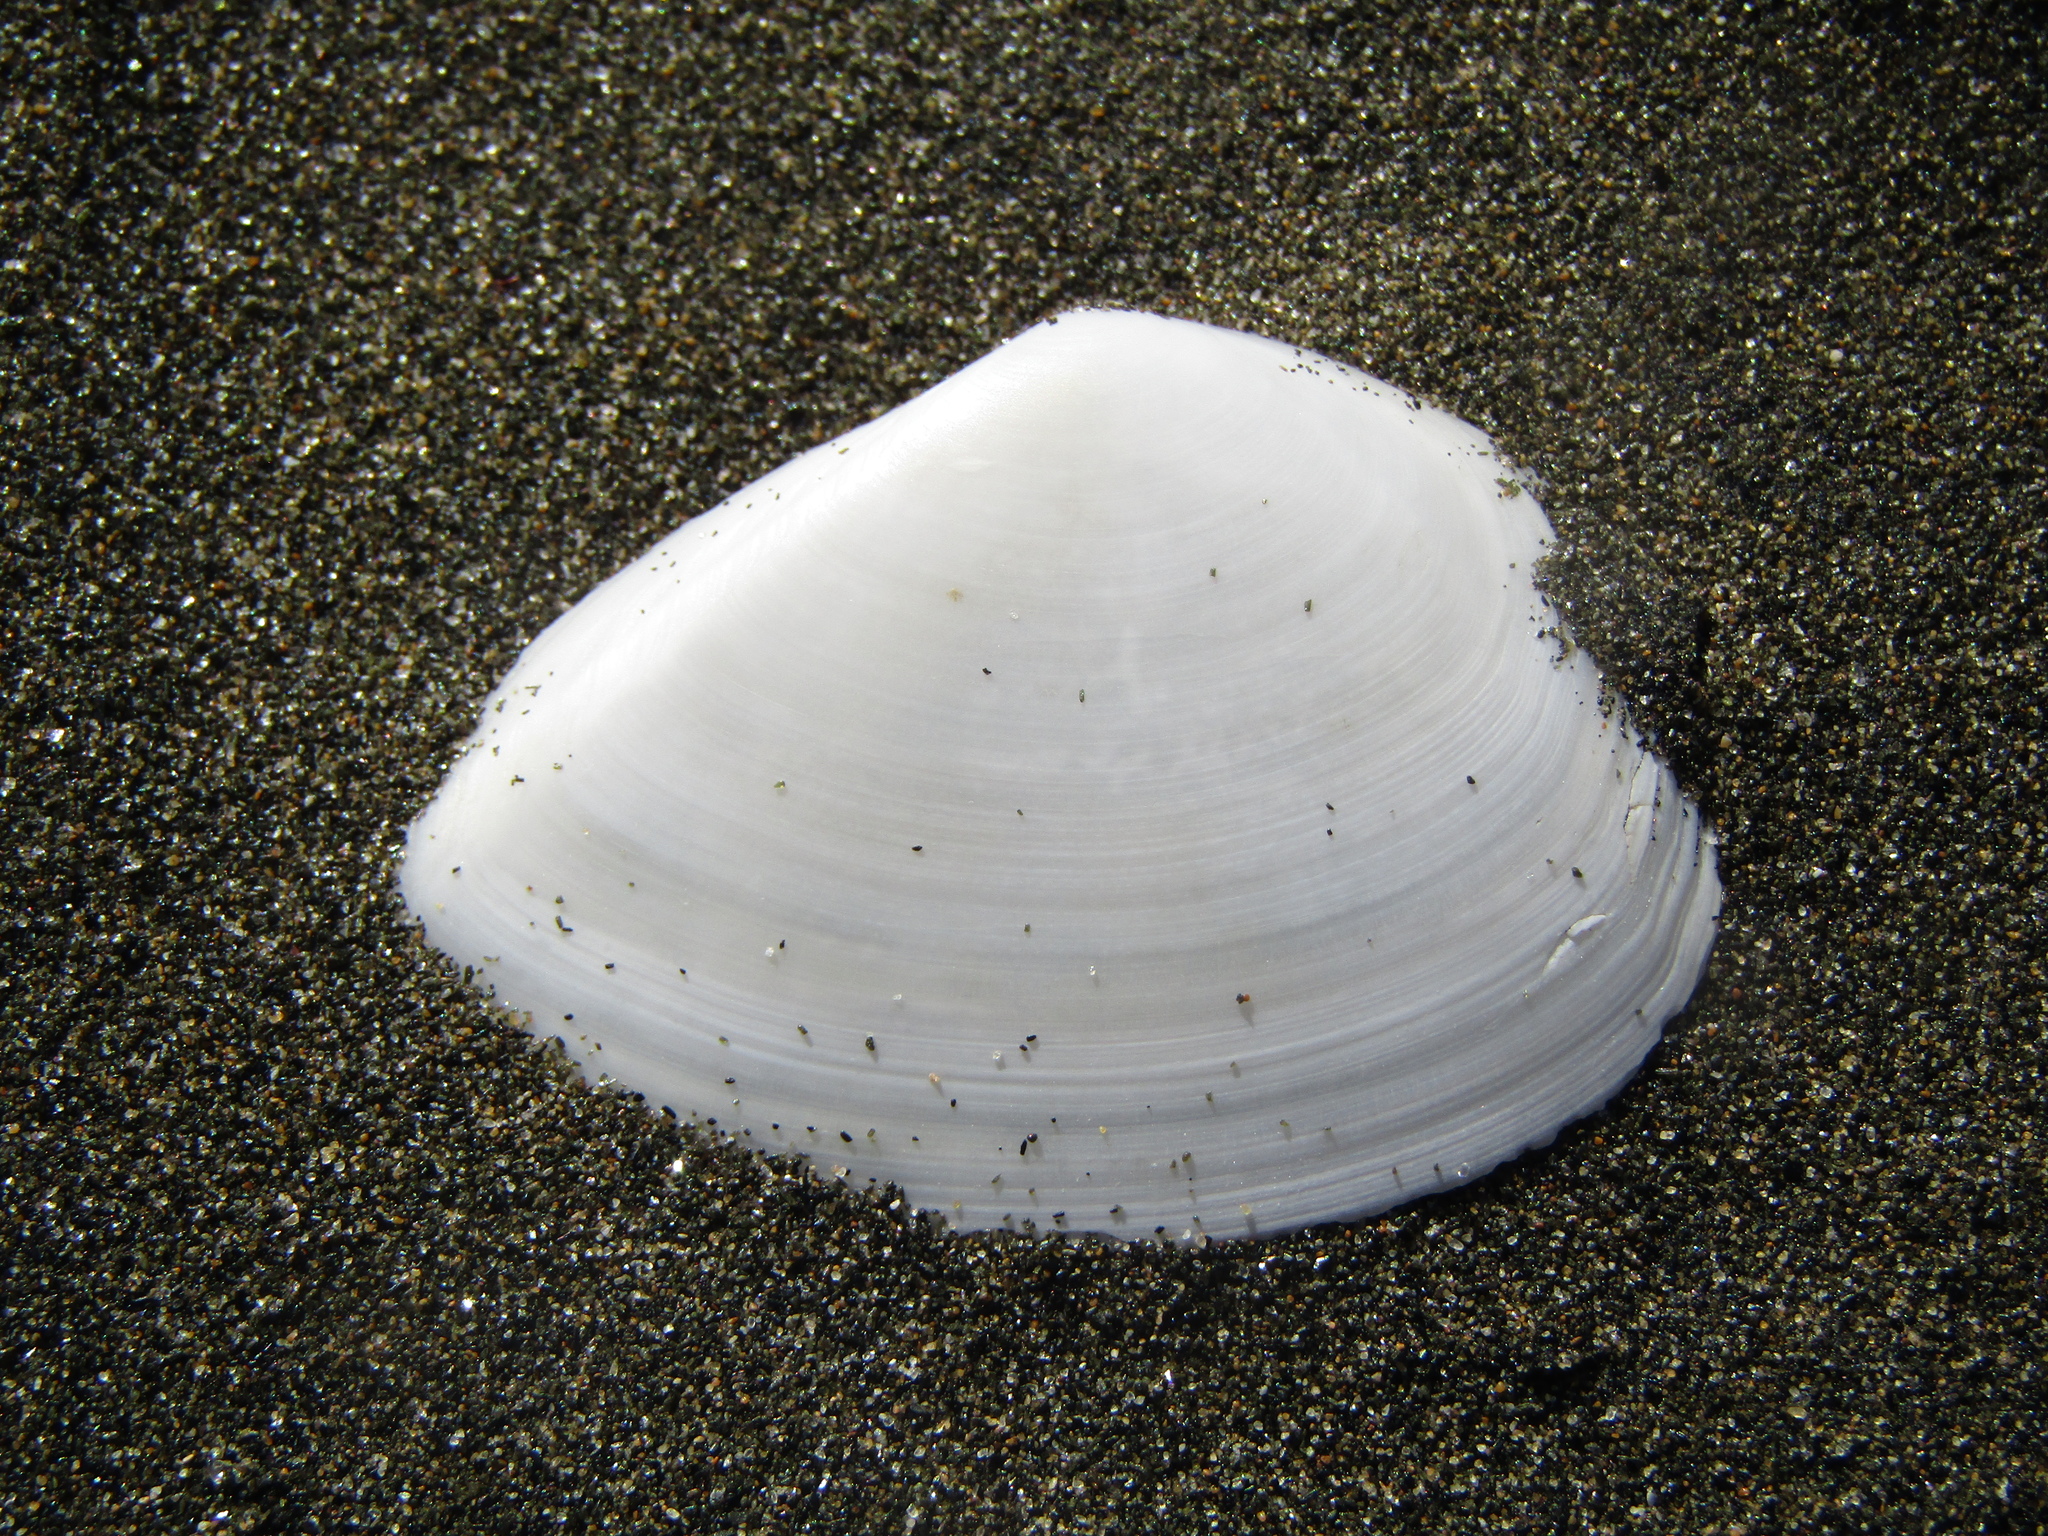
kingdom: Animalia
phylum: Mollusca
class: Bivalvia
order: Cardiida
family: Tellinidae
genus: Bartschicoma
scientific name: Bartschicoma gaimardi
